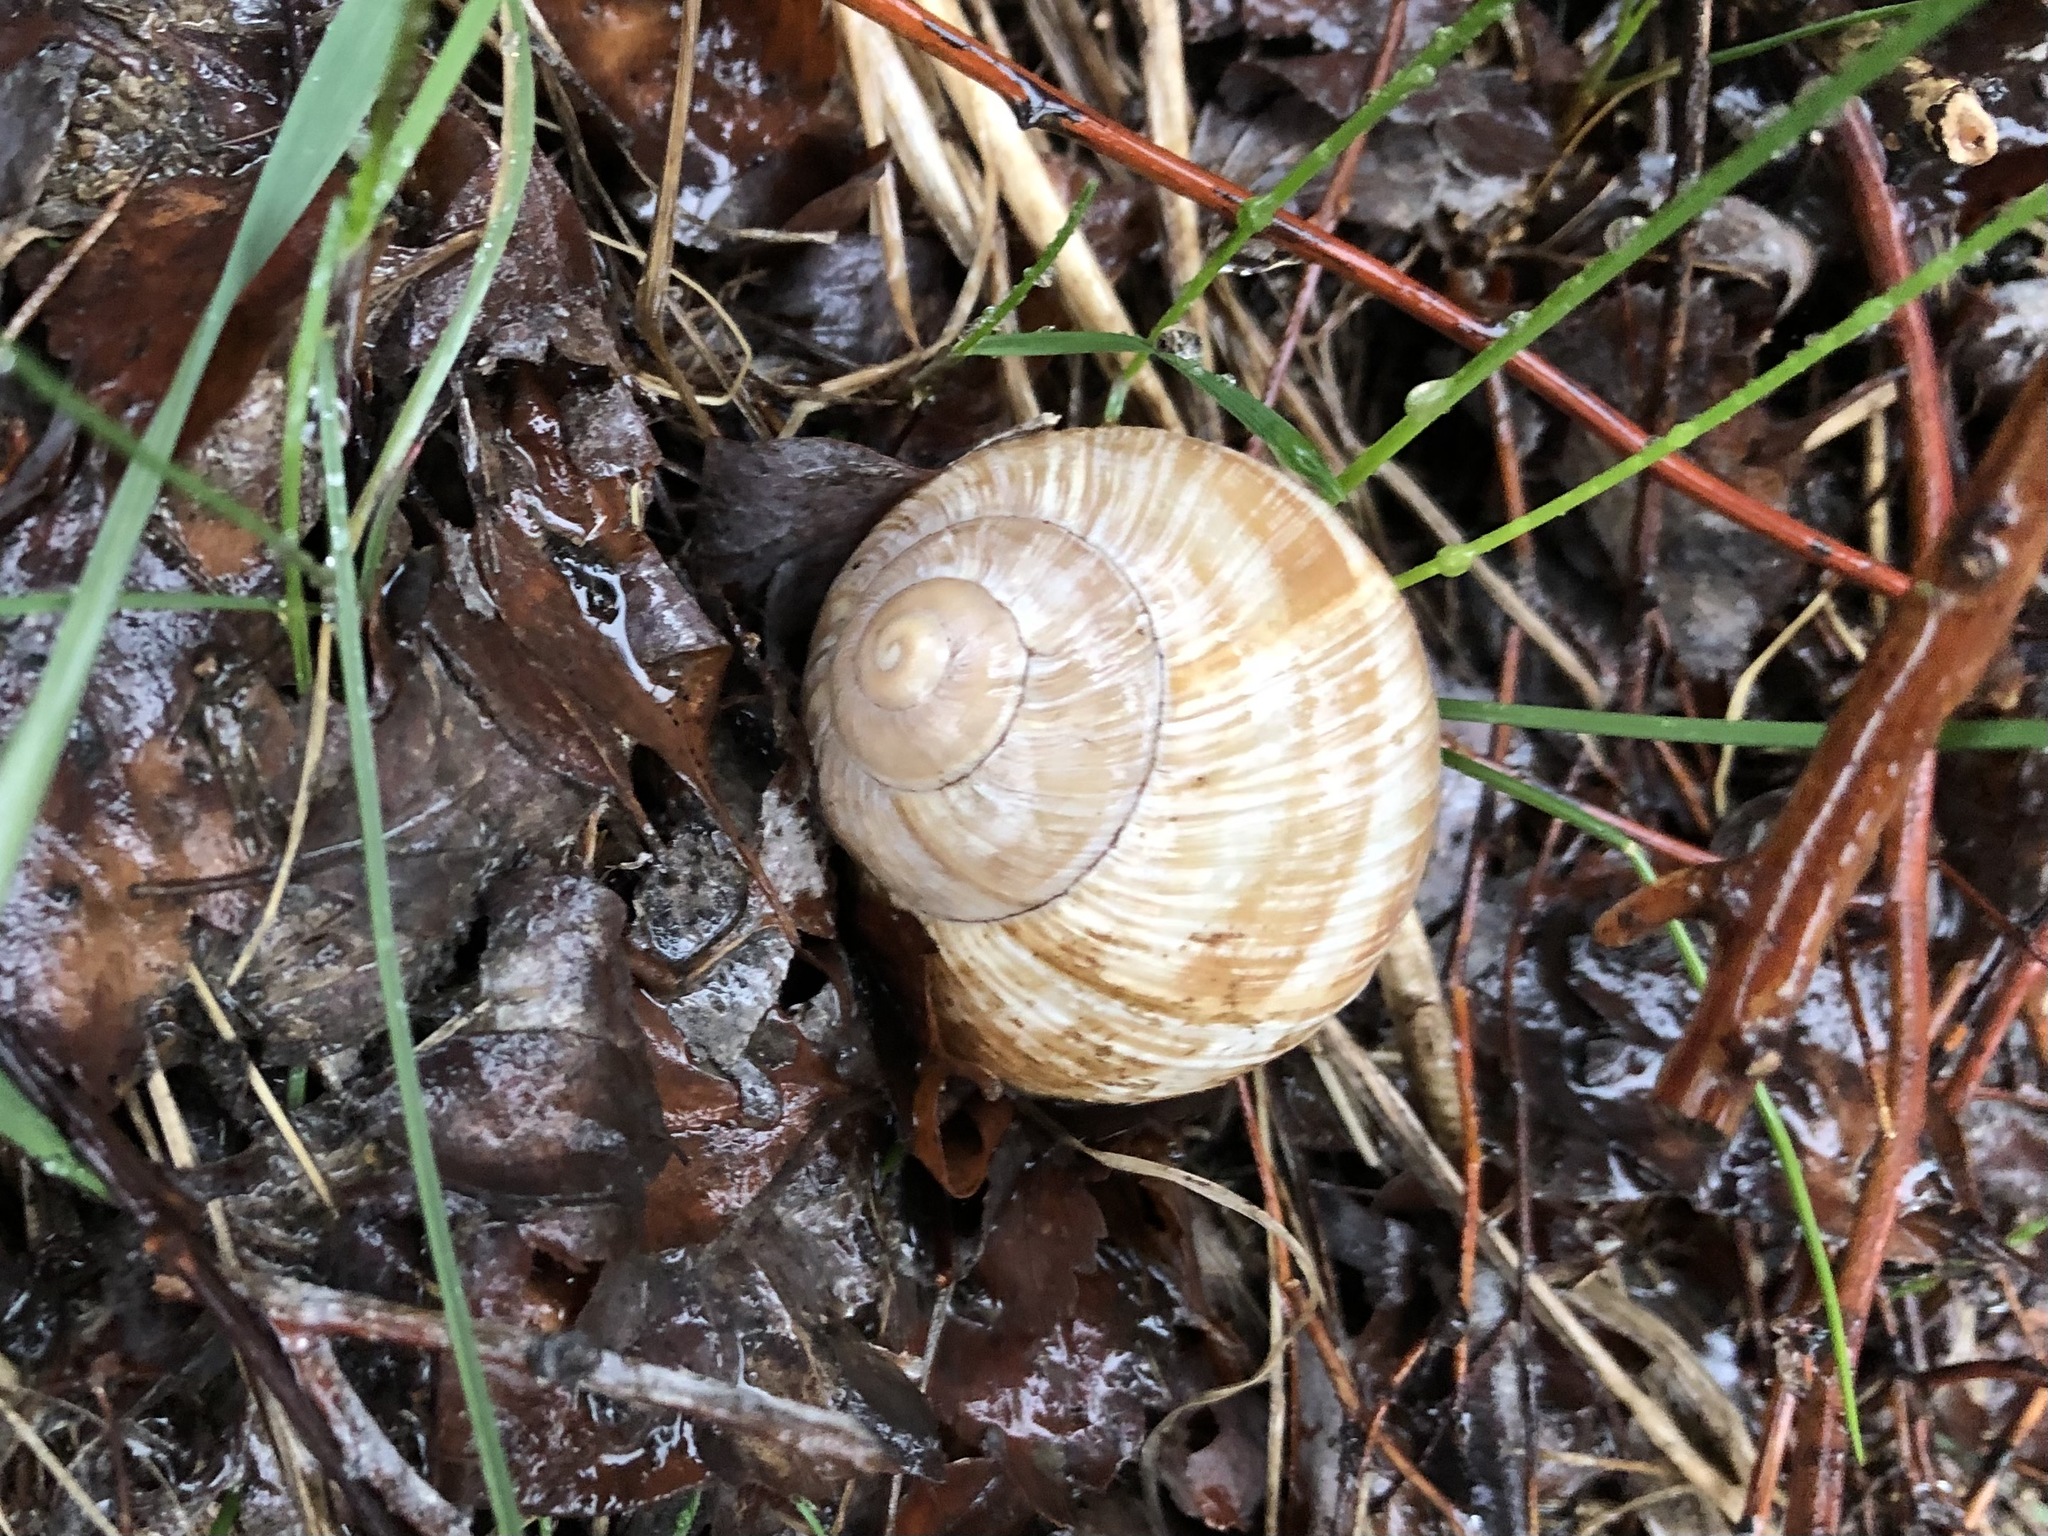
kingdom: Animalia
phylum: Mollusca
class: Gastropoda
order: Stylommatophora
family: Helicidae
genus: Helix
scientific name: Helix pomatia
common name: Roman snail
